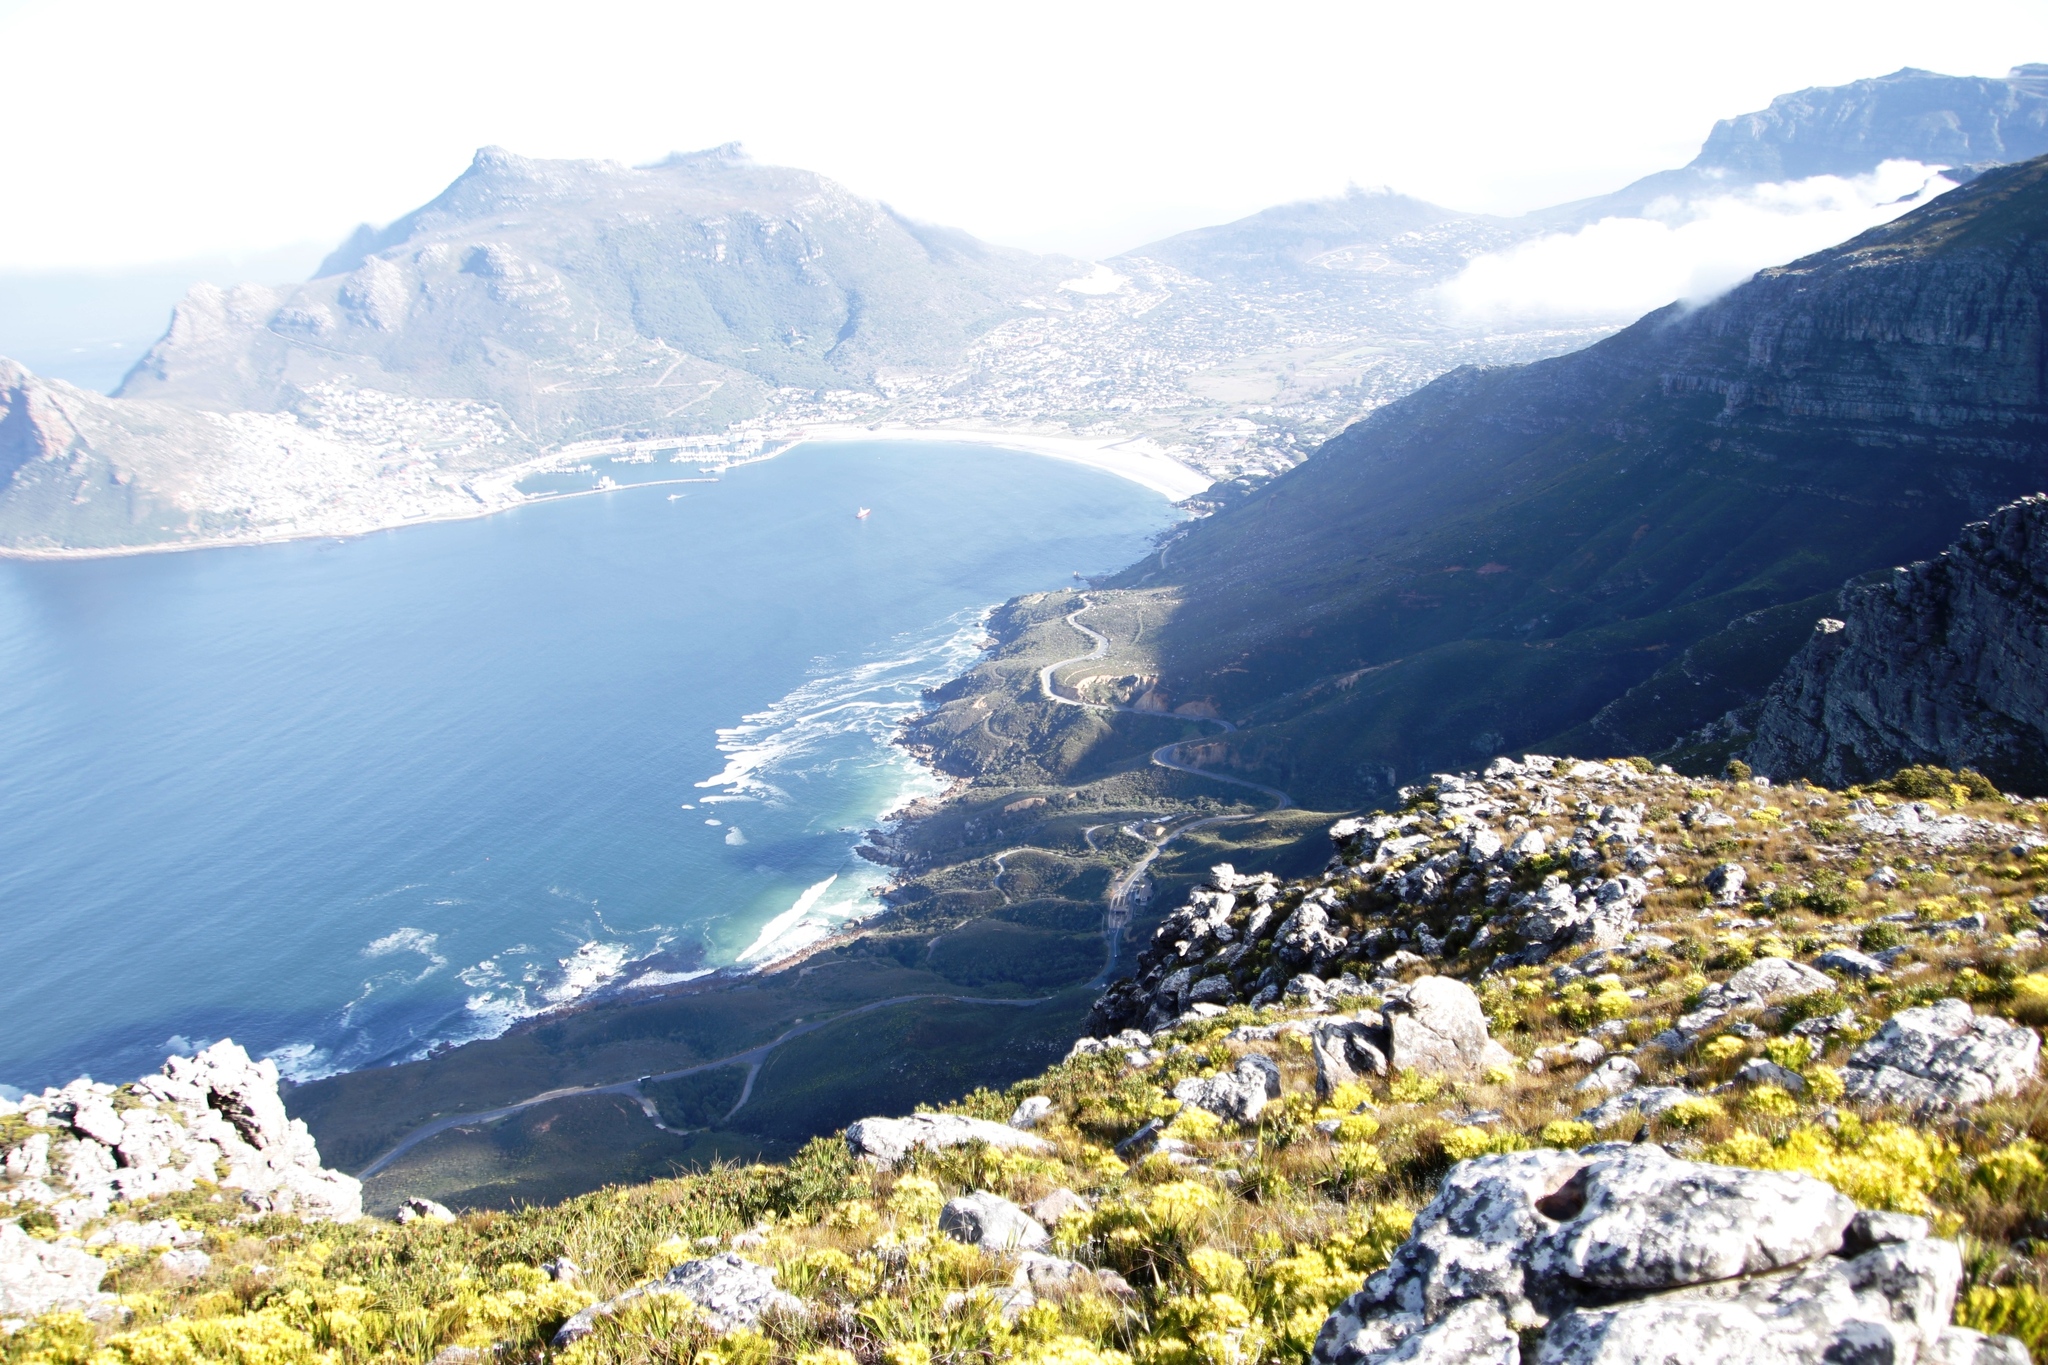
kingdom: Plantae
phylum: Tracheophyta
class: Magnoliopsida
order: Proteales
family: Proteaceae
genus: Leucadendron
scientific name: Leucadendron xanthoconus
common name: Sickle-leaf conebush
